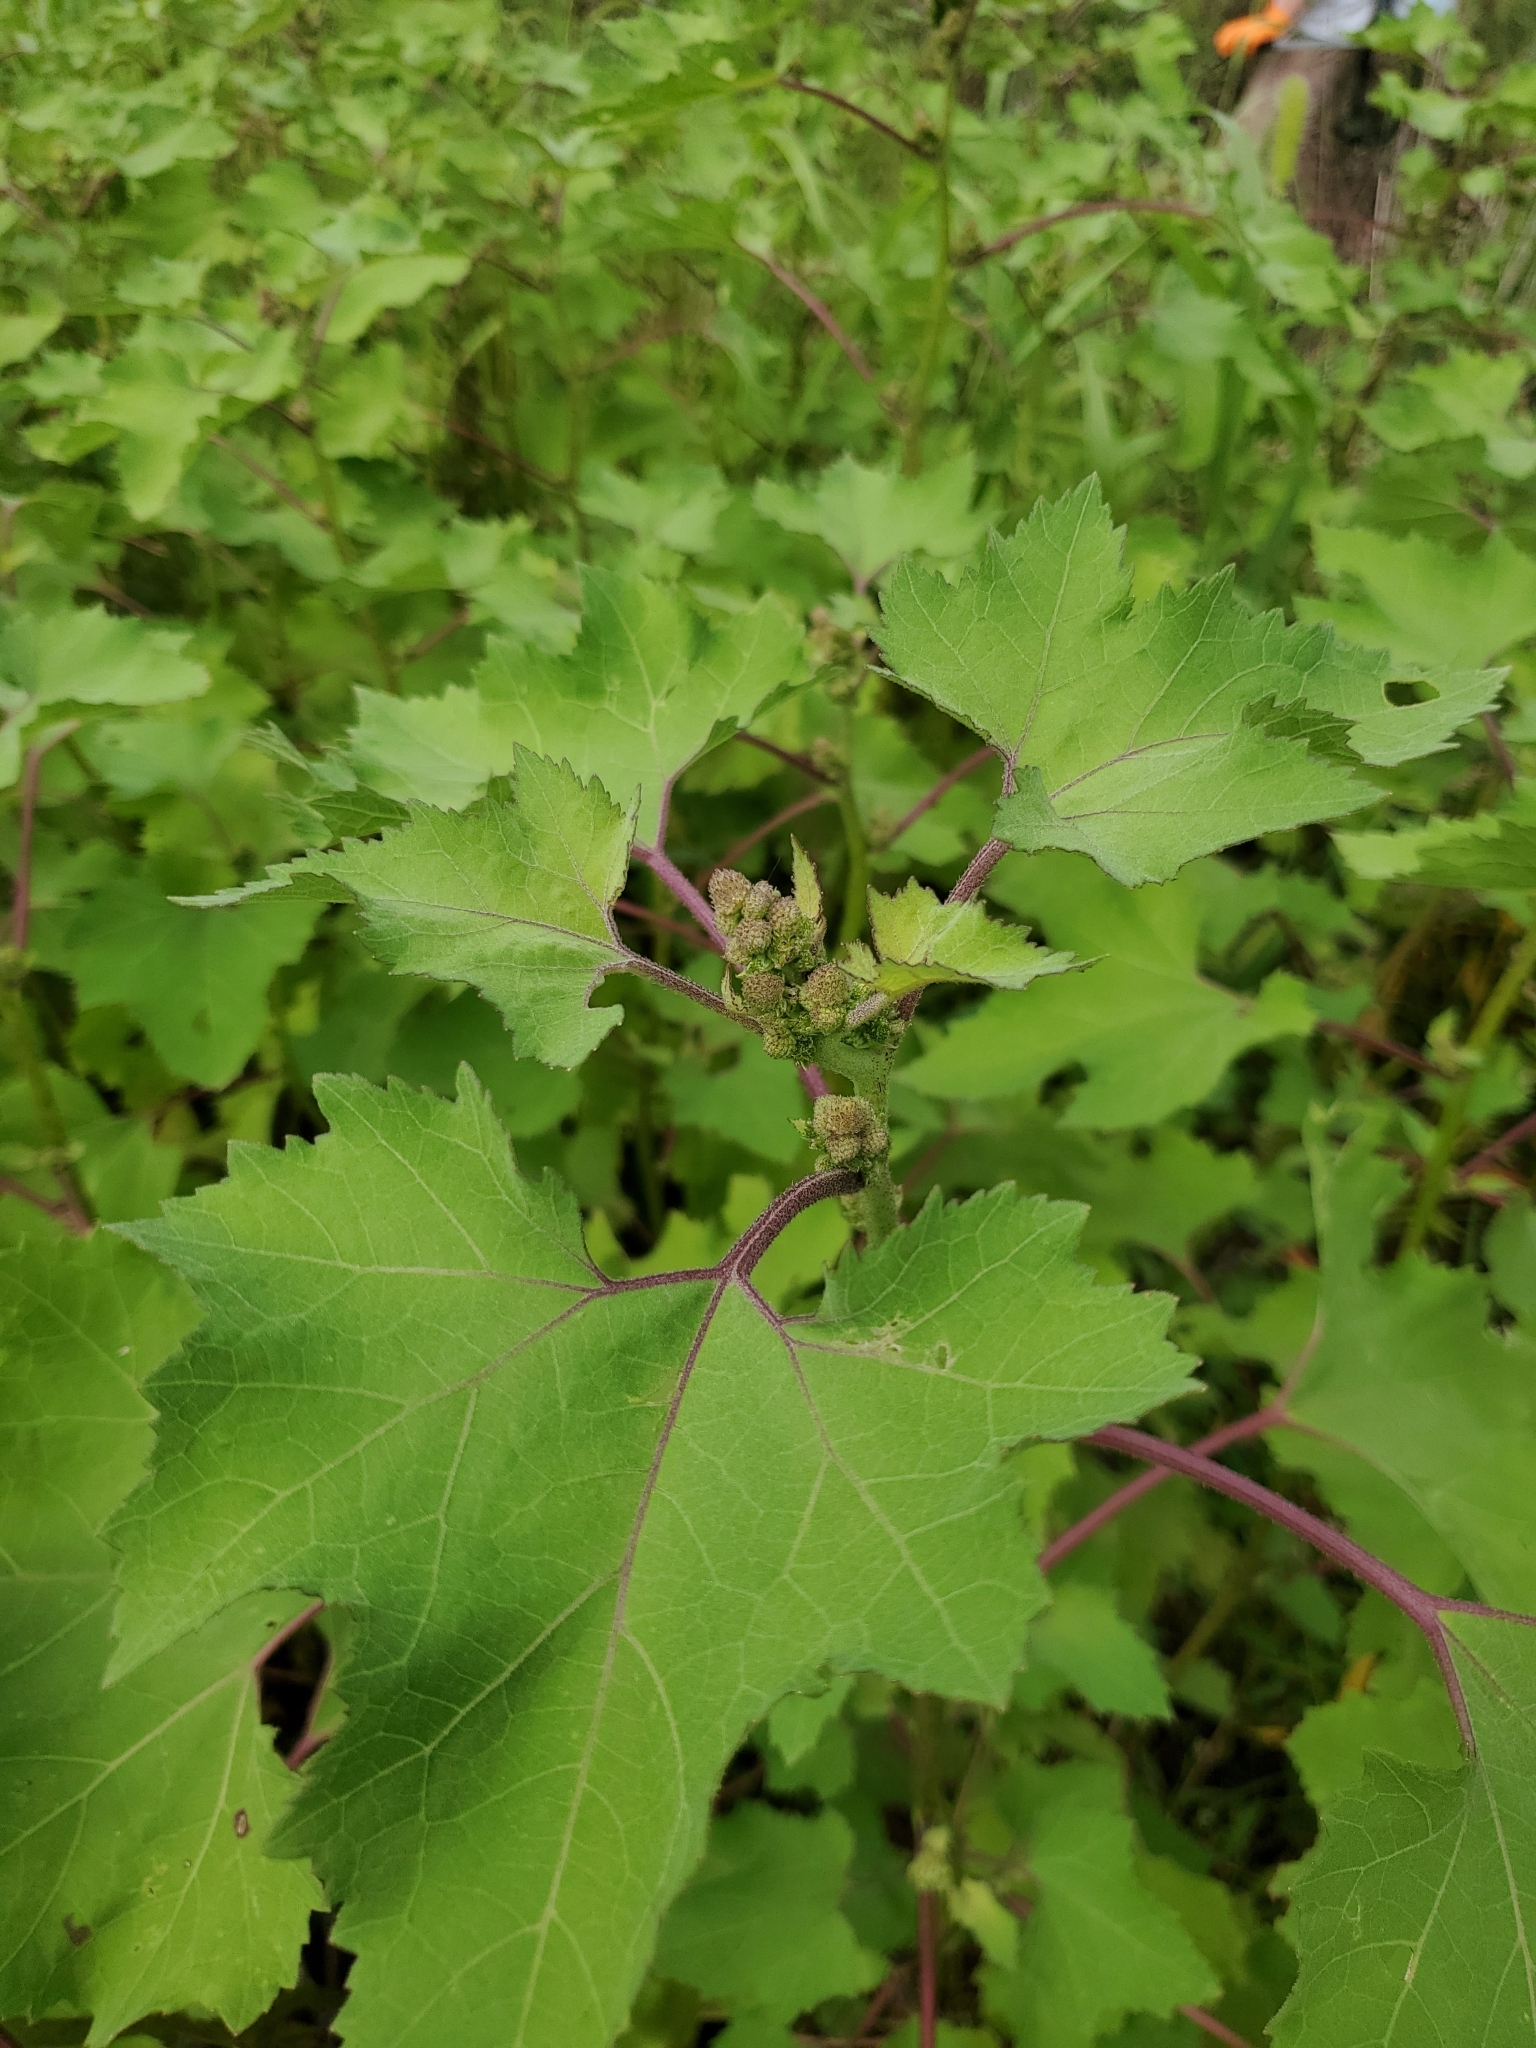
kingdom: Plantae
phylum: Tracheophyta
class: Magnoliopsida
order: Asterales
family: Asteraceae
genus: Xanthium
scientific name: Xanthium strumarium
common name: Rough cocklebur
